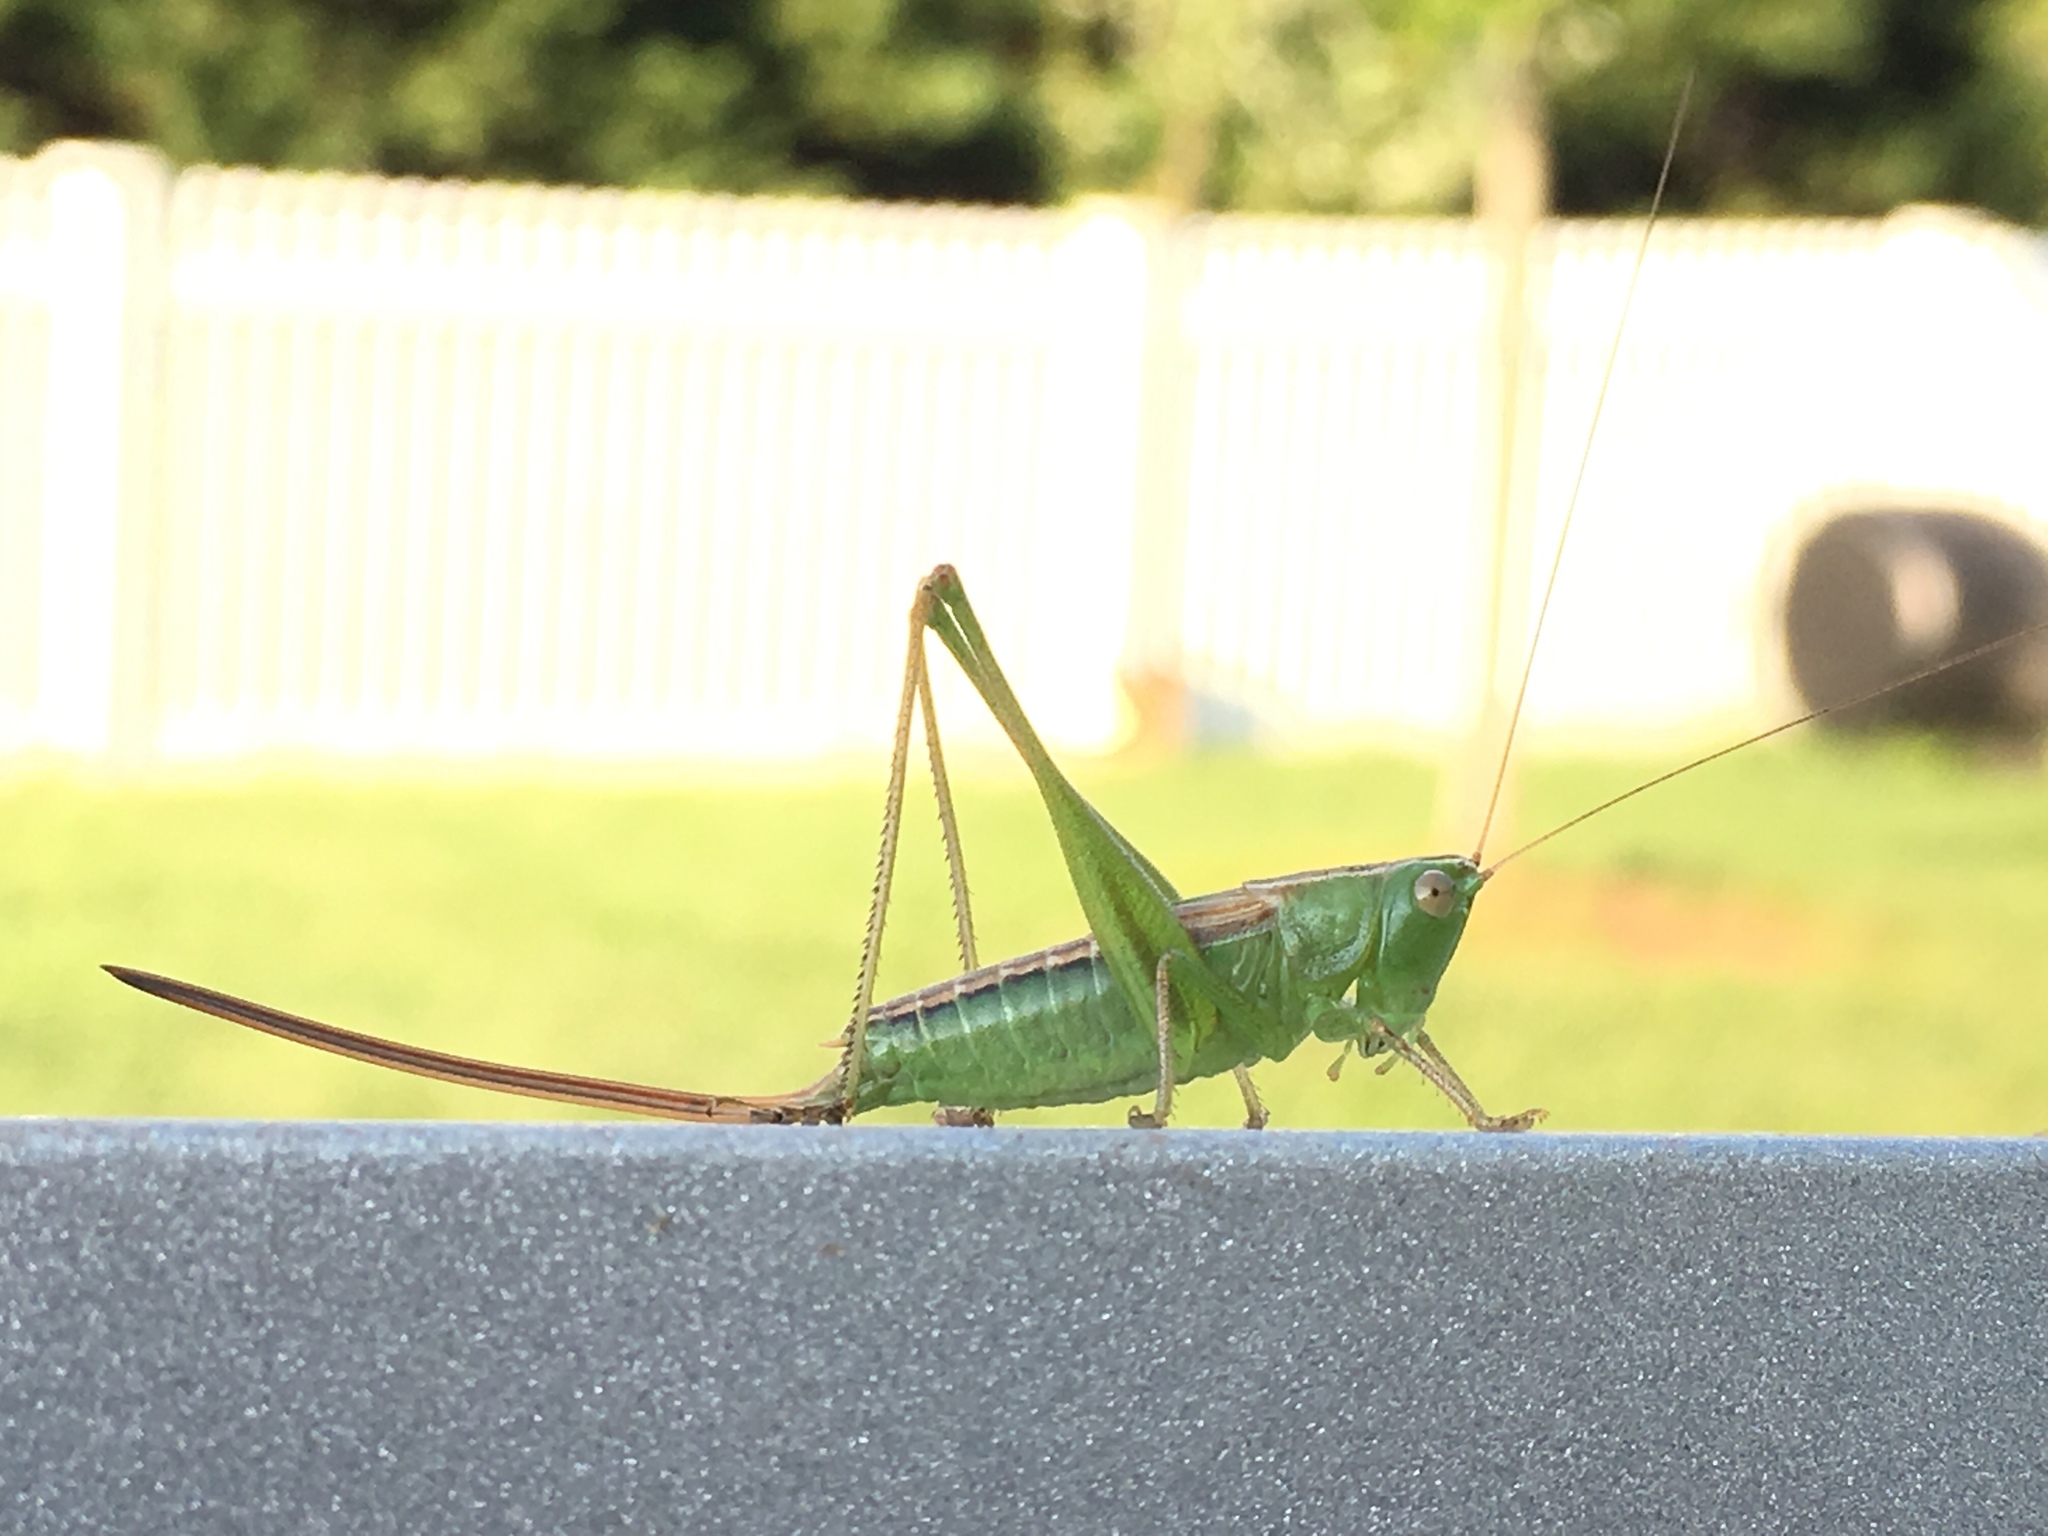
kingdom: Animalia
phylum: Arthropoda
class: Insecta
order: Orthoptera
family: Tettigoniidae
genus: Conocephalus
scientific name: Conocephalus strictus
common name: Straight-lanced katydid
